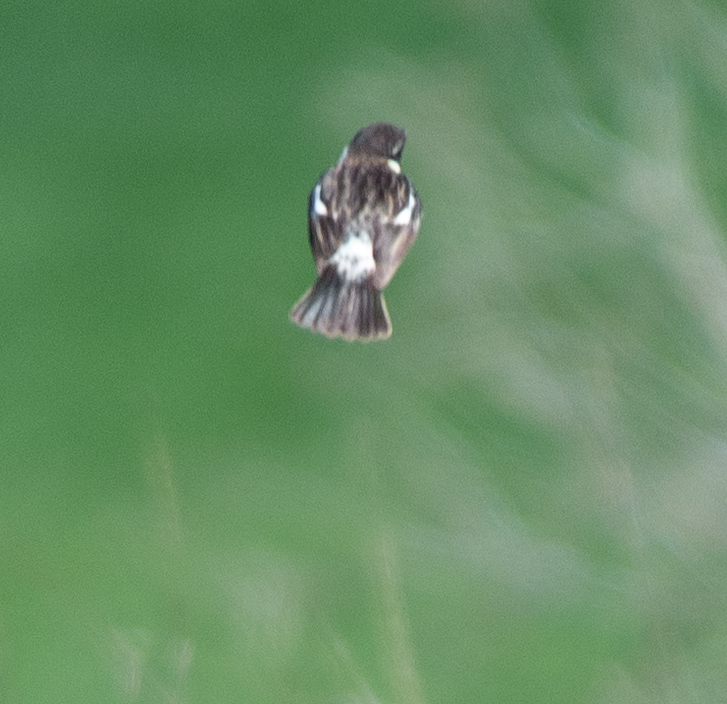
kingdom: Animalia
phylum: Chordata
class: Aves
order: Passeriformes
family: Muscicapidae
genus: Saxicola
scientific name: Saxicola rubicola
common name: European stonechat
